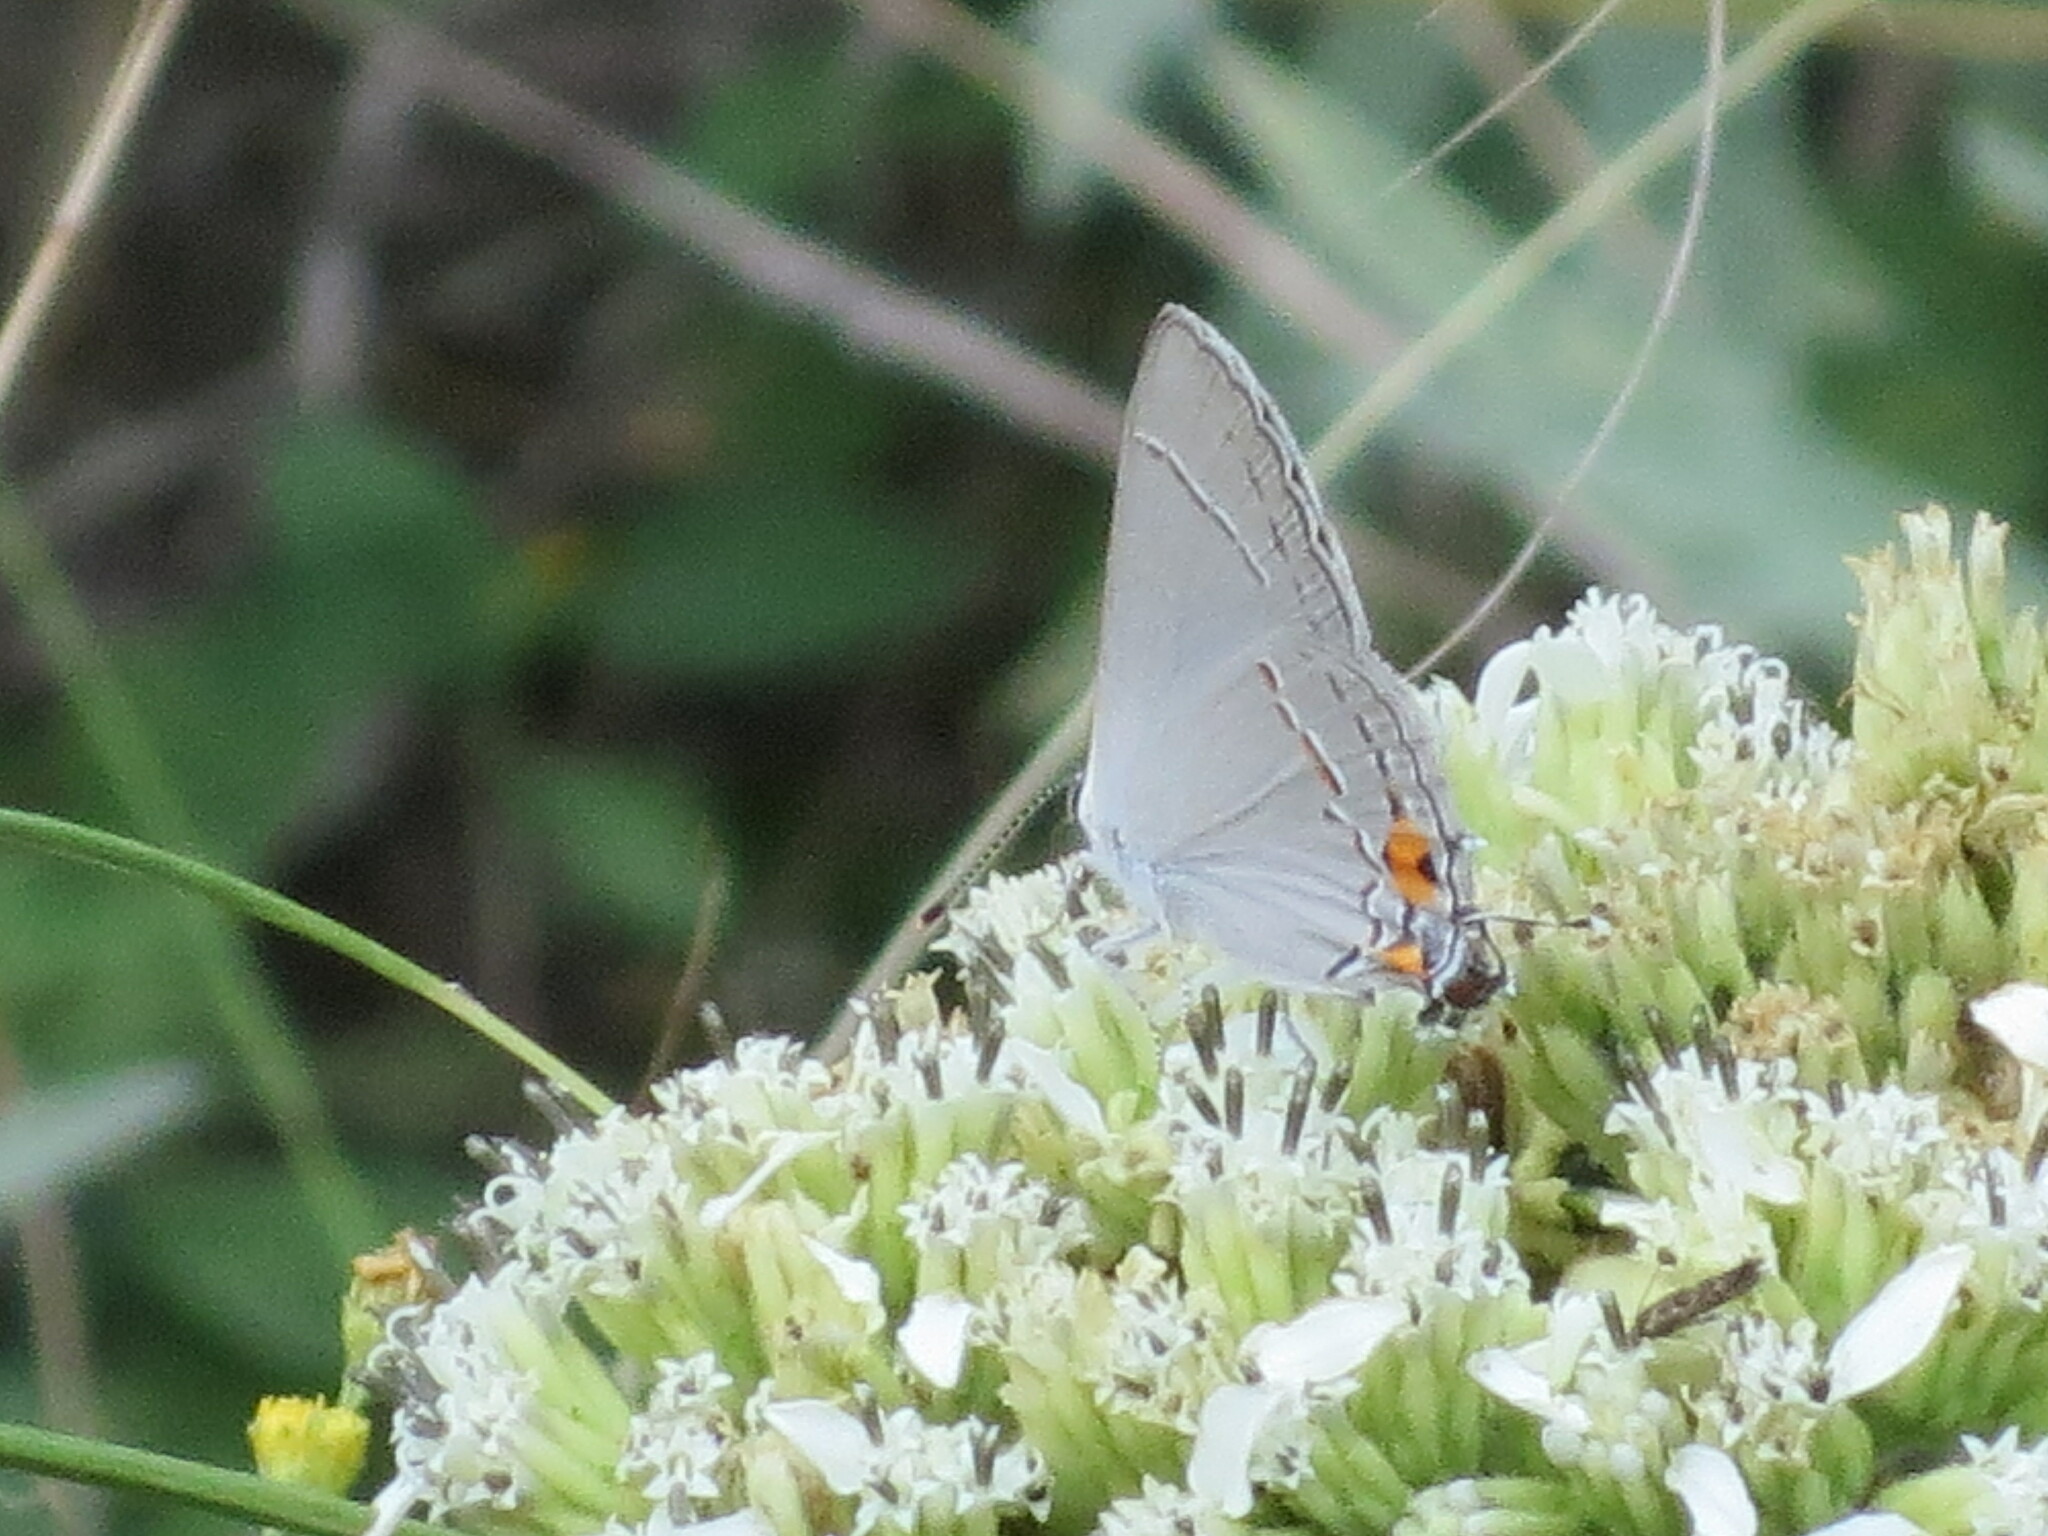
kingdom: Animalia
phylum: Arthropoda
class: Insecta
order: Lepidoptera
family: Lycaenidae
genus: Strymon
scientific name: Strymon melinus
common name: Gray hairstreak
